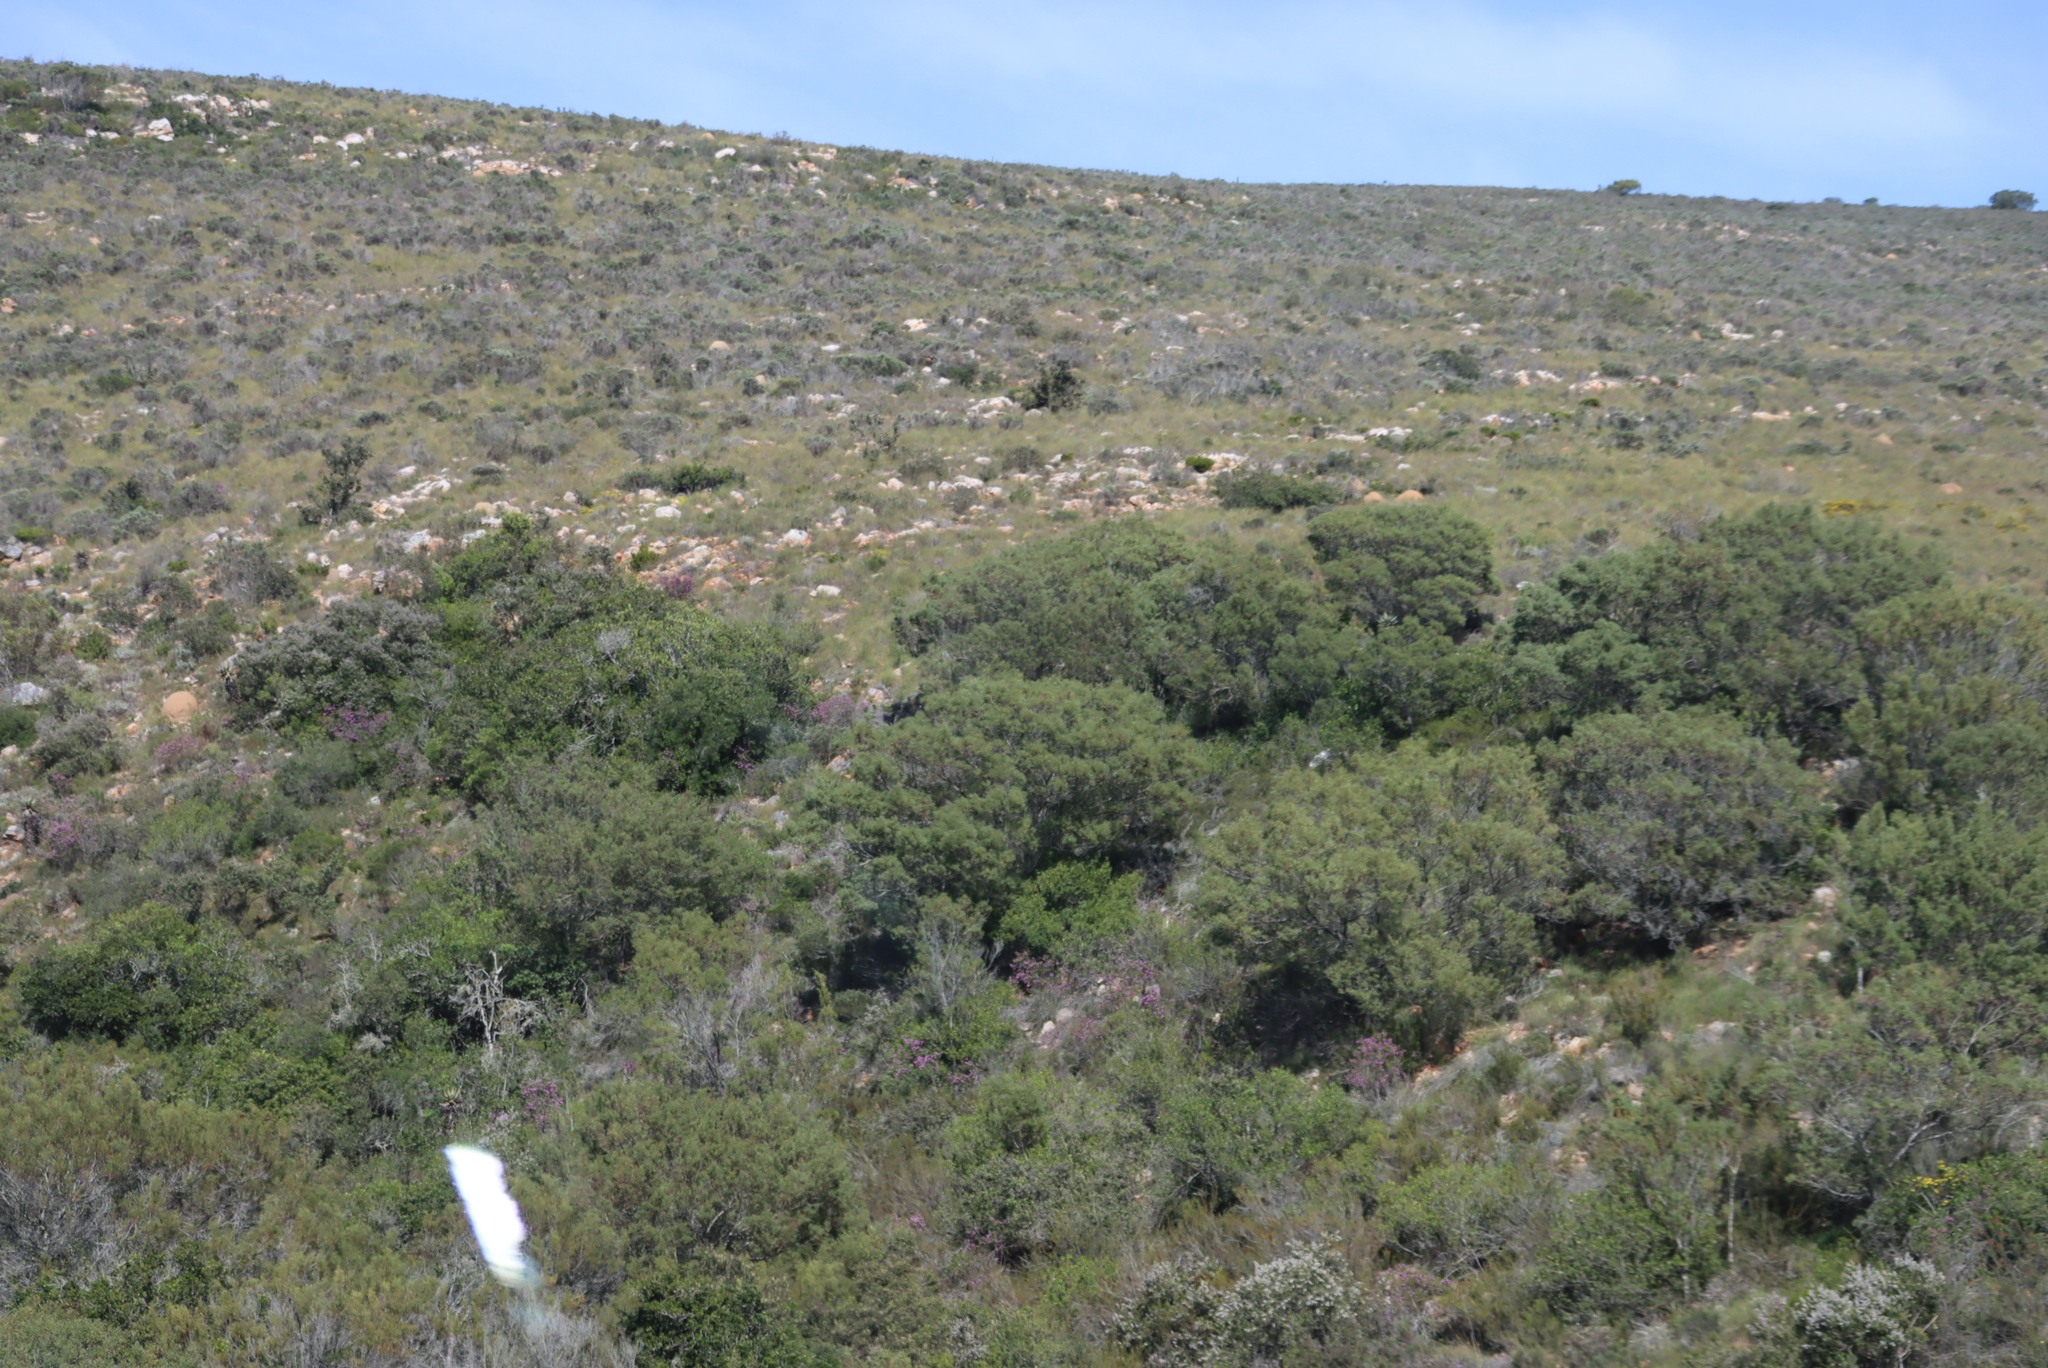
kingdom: Plantae
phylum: Tracheophyta
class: Magnoliopsida
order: Fabales
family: Fabaceae
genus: Acacia
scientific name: Acacia cyclops
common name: Coastal wattle
